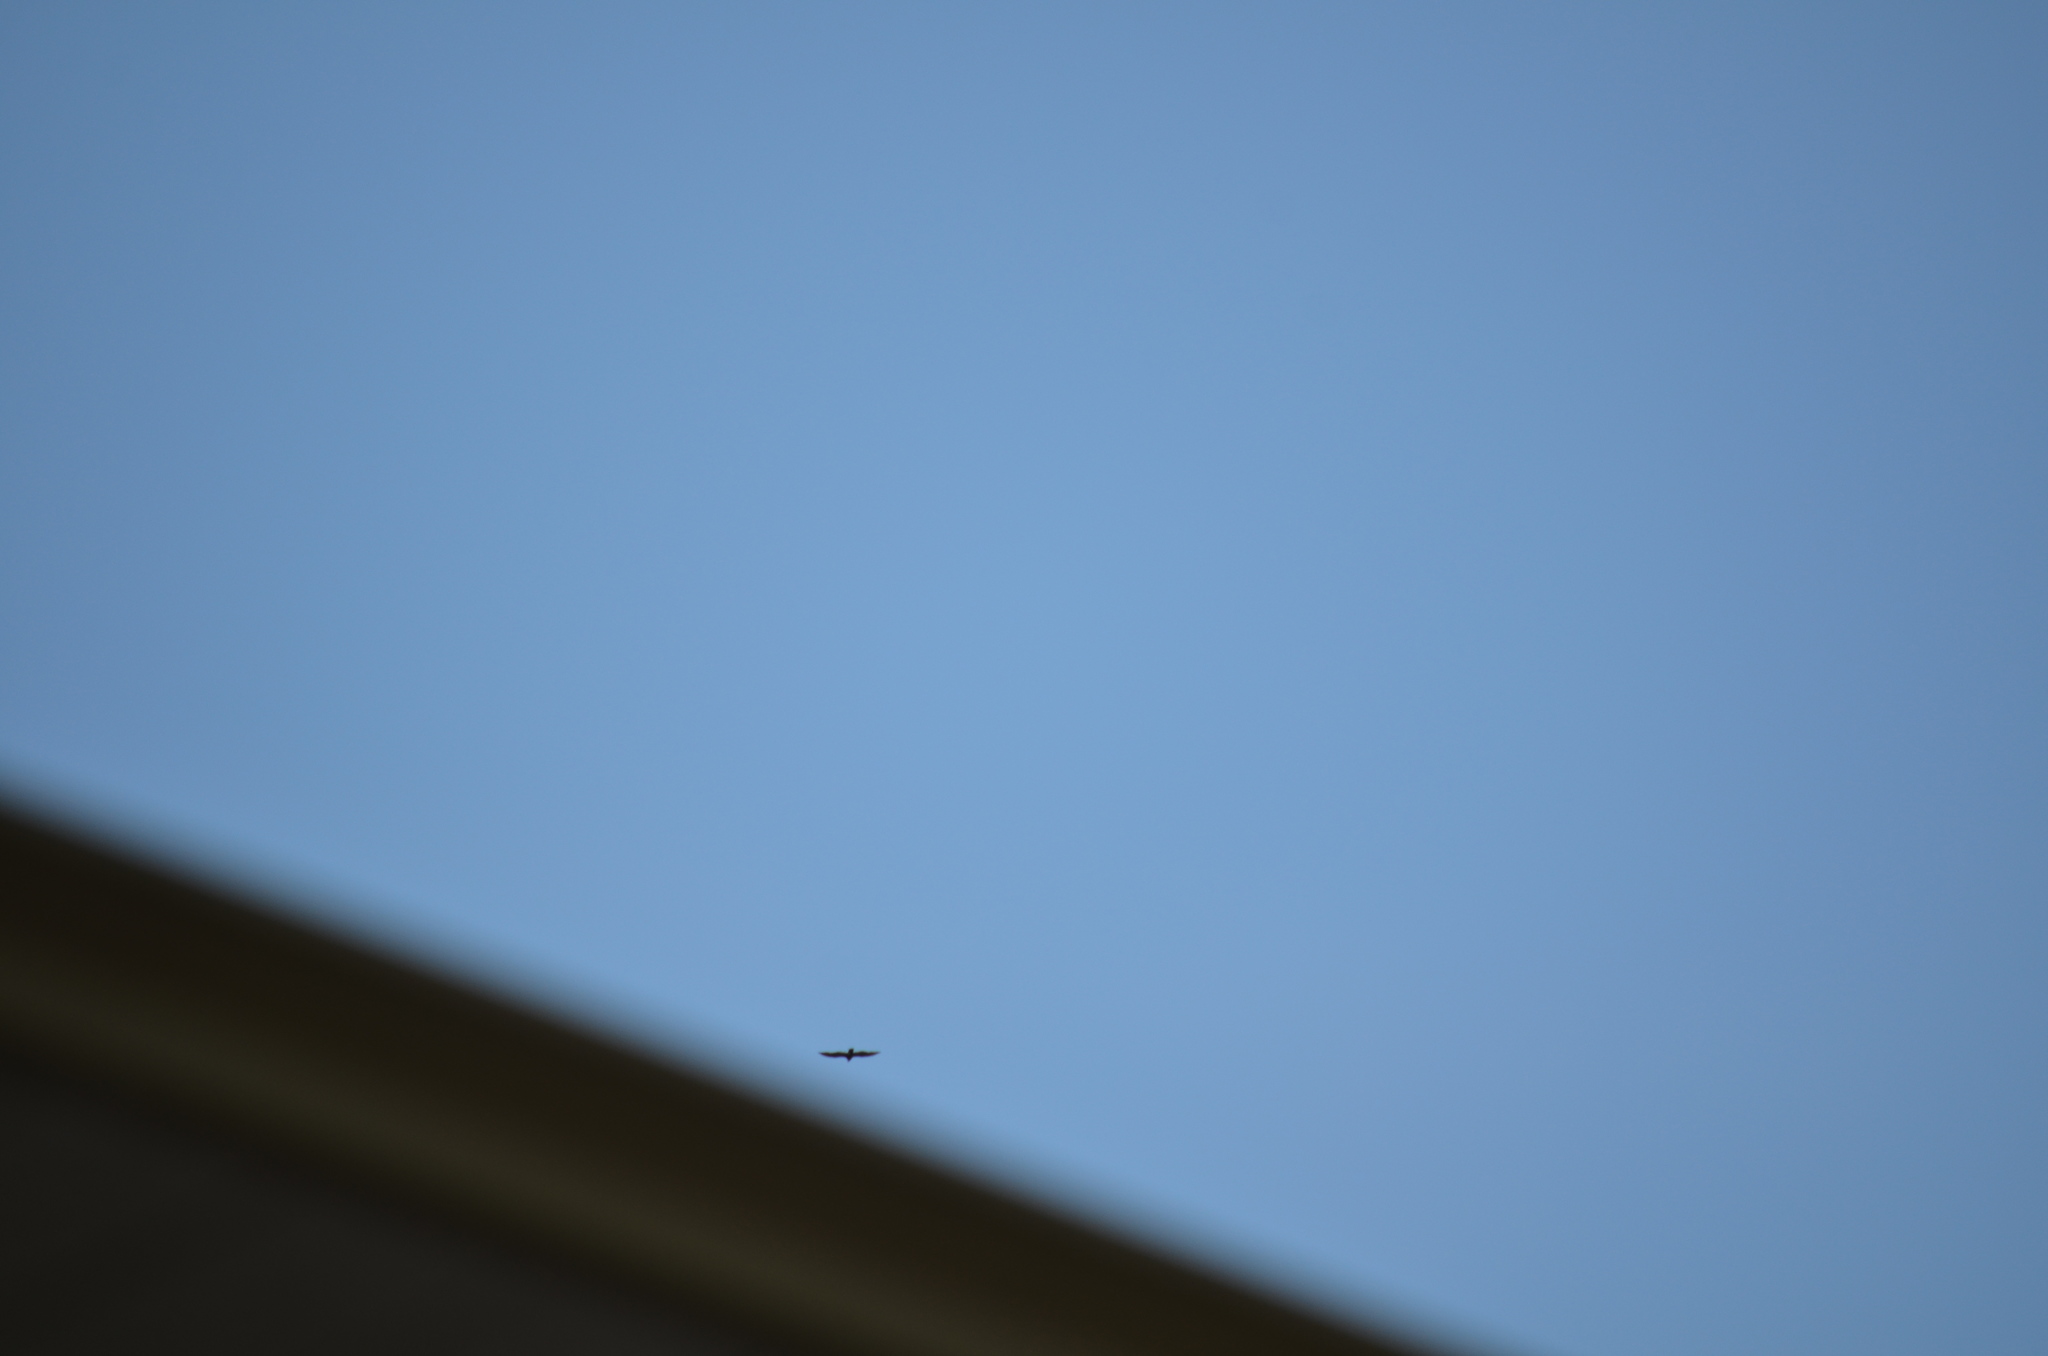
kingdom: Animalia
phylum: Chordata
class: Aves
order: Accipitriformes
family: Cathartidae
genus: Cathartes
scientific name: Cathartes aura
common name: Turkey vulture
